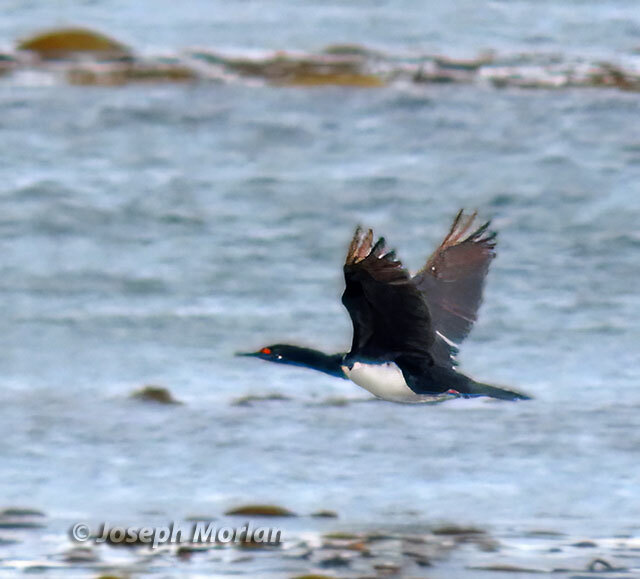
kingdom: Animalia
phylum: Chordata
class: Aves
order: Suliformes
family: Phalacrocoracidae
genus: Phalacrocorax
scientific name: Phalacrocorax magellanicus
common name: Rock shag
